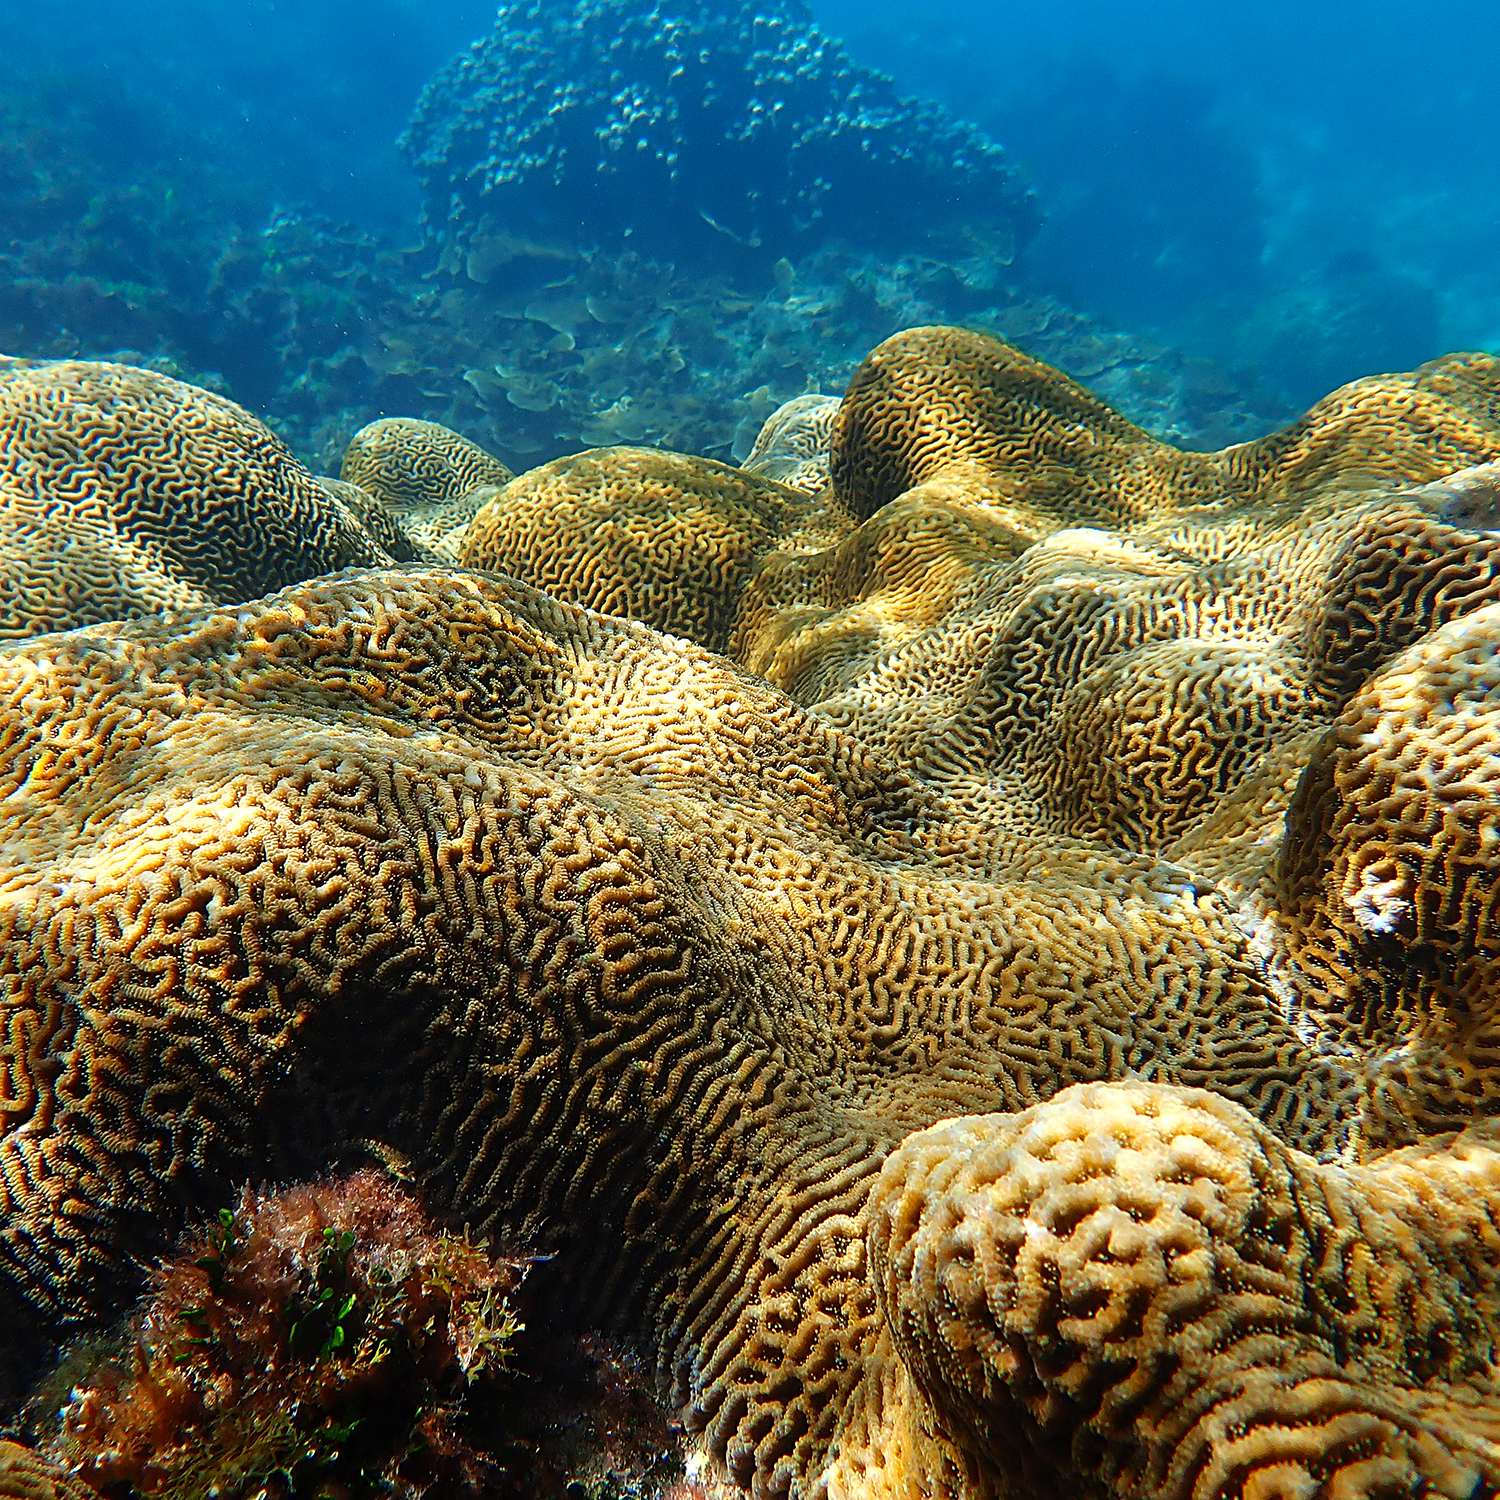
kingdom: Animalia
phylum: Cnidaria
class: Anthozoa
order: Scleractinia
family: Merulinidae
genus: Paragoniastrea
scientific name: Paragoniastrea australensis
